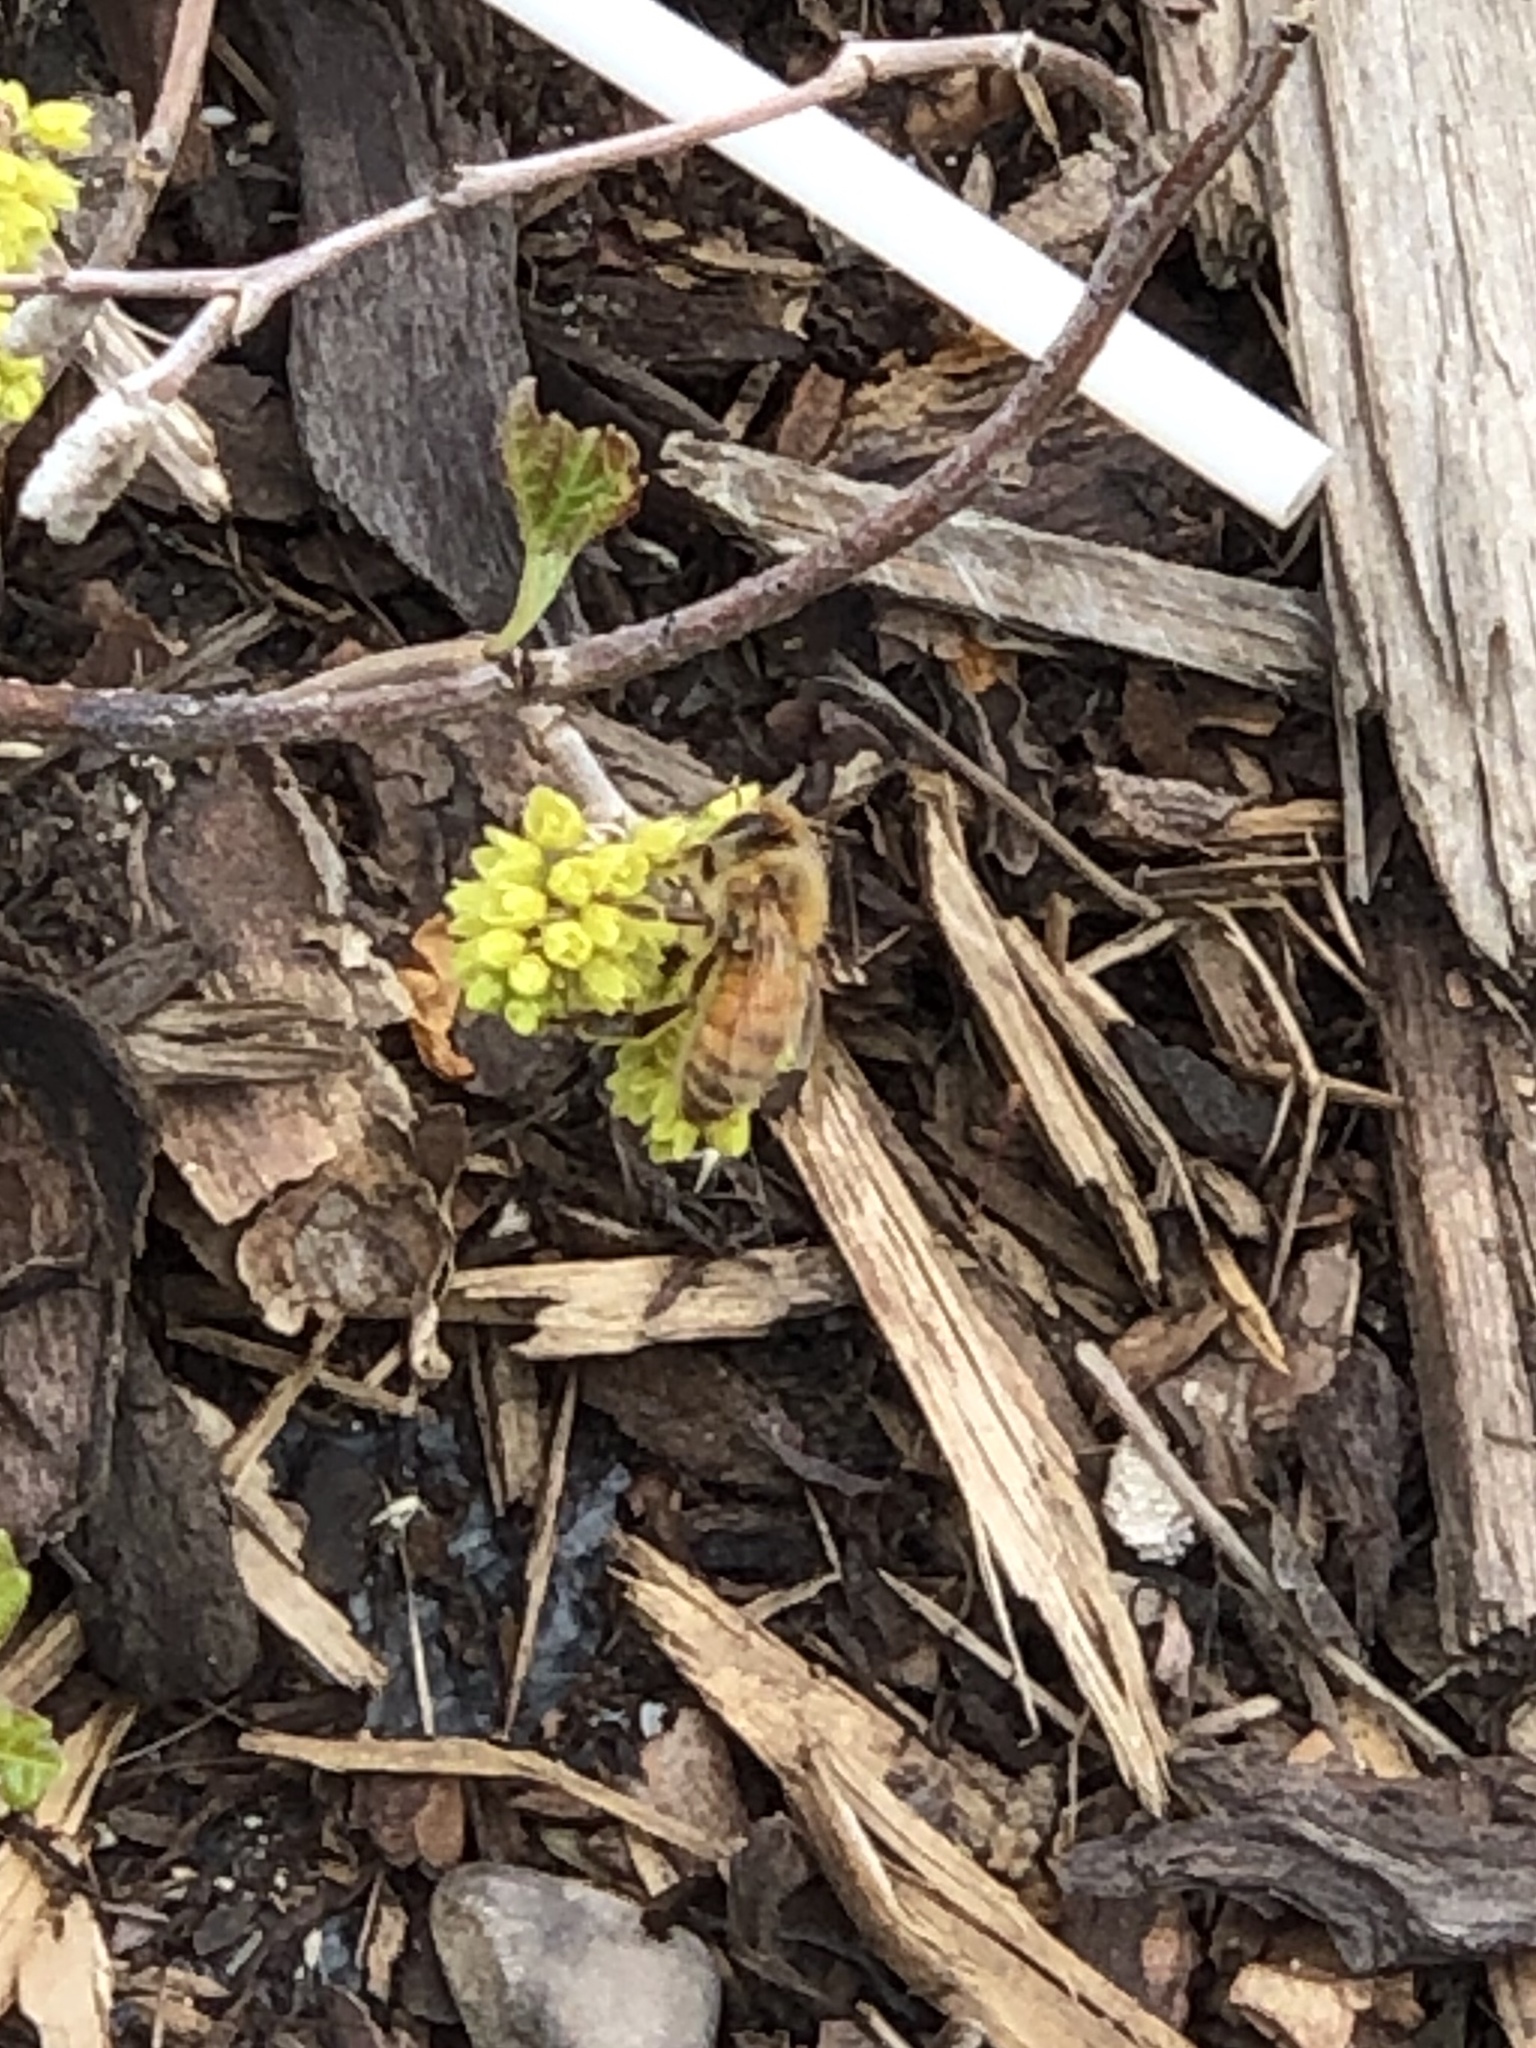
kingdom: Animalia
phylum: Arthropoda
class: Insecta
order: Hymenoptera
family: Apidae
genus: Apis
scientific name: Apis mellifera
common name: Honey bee
